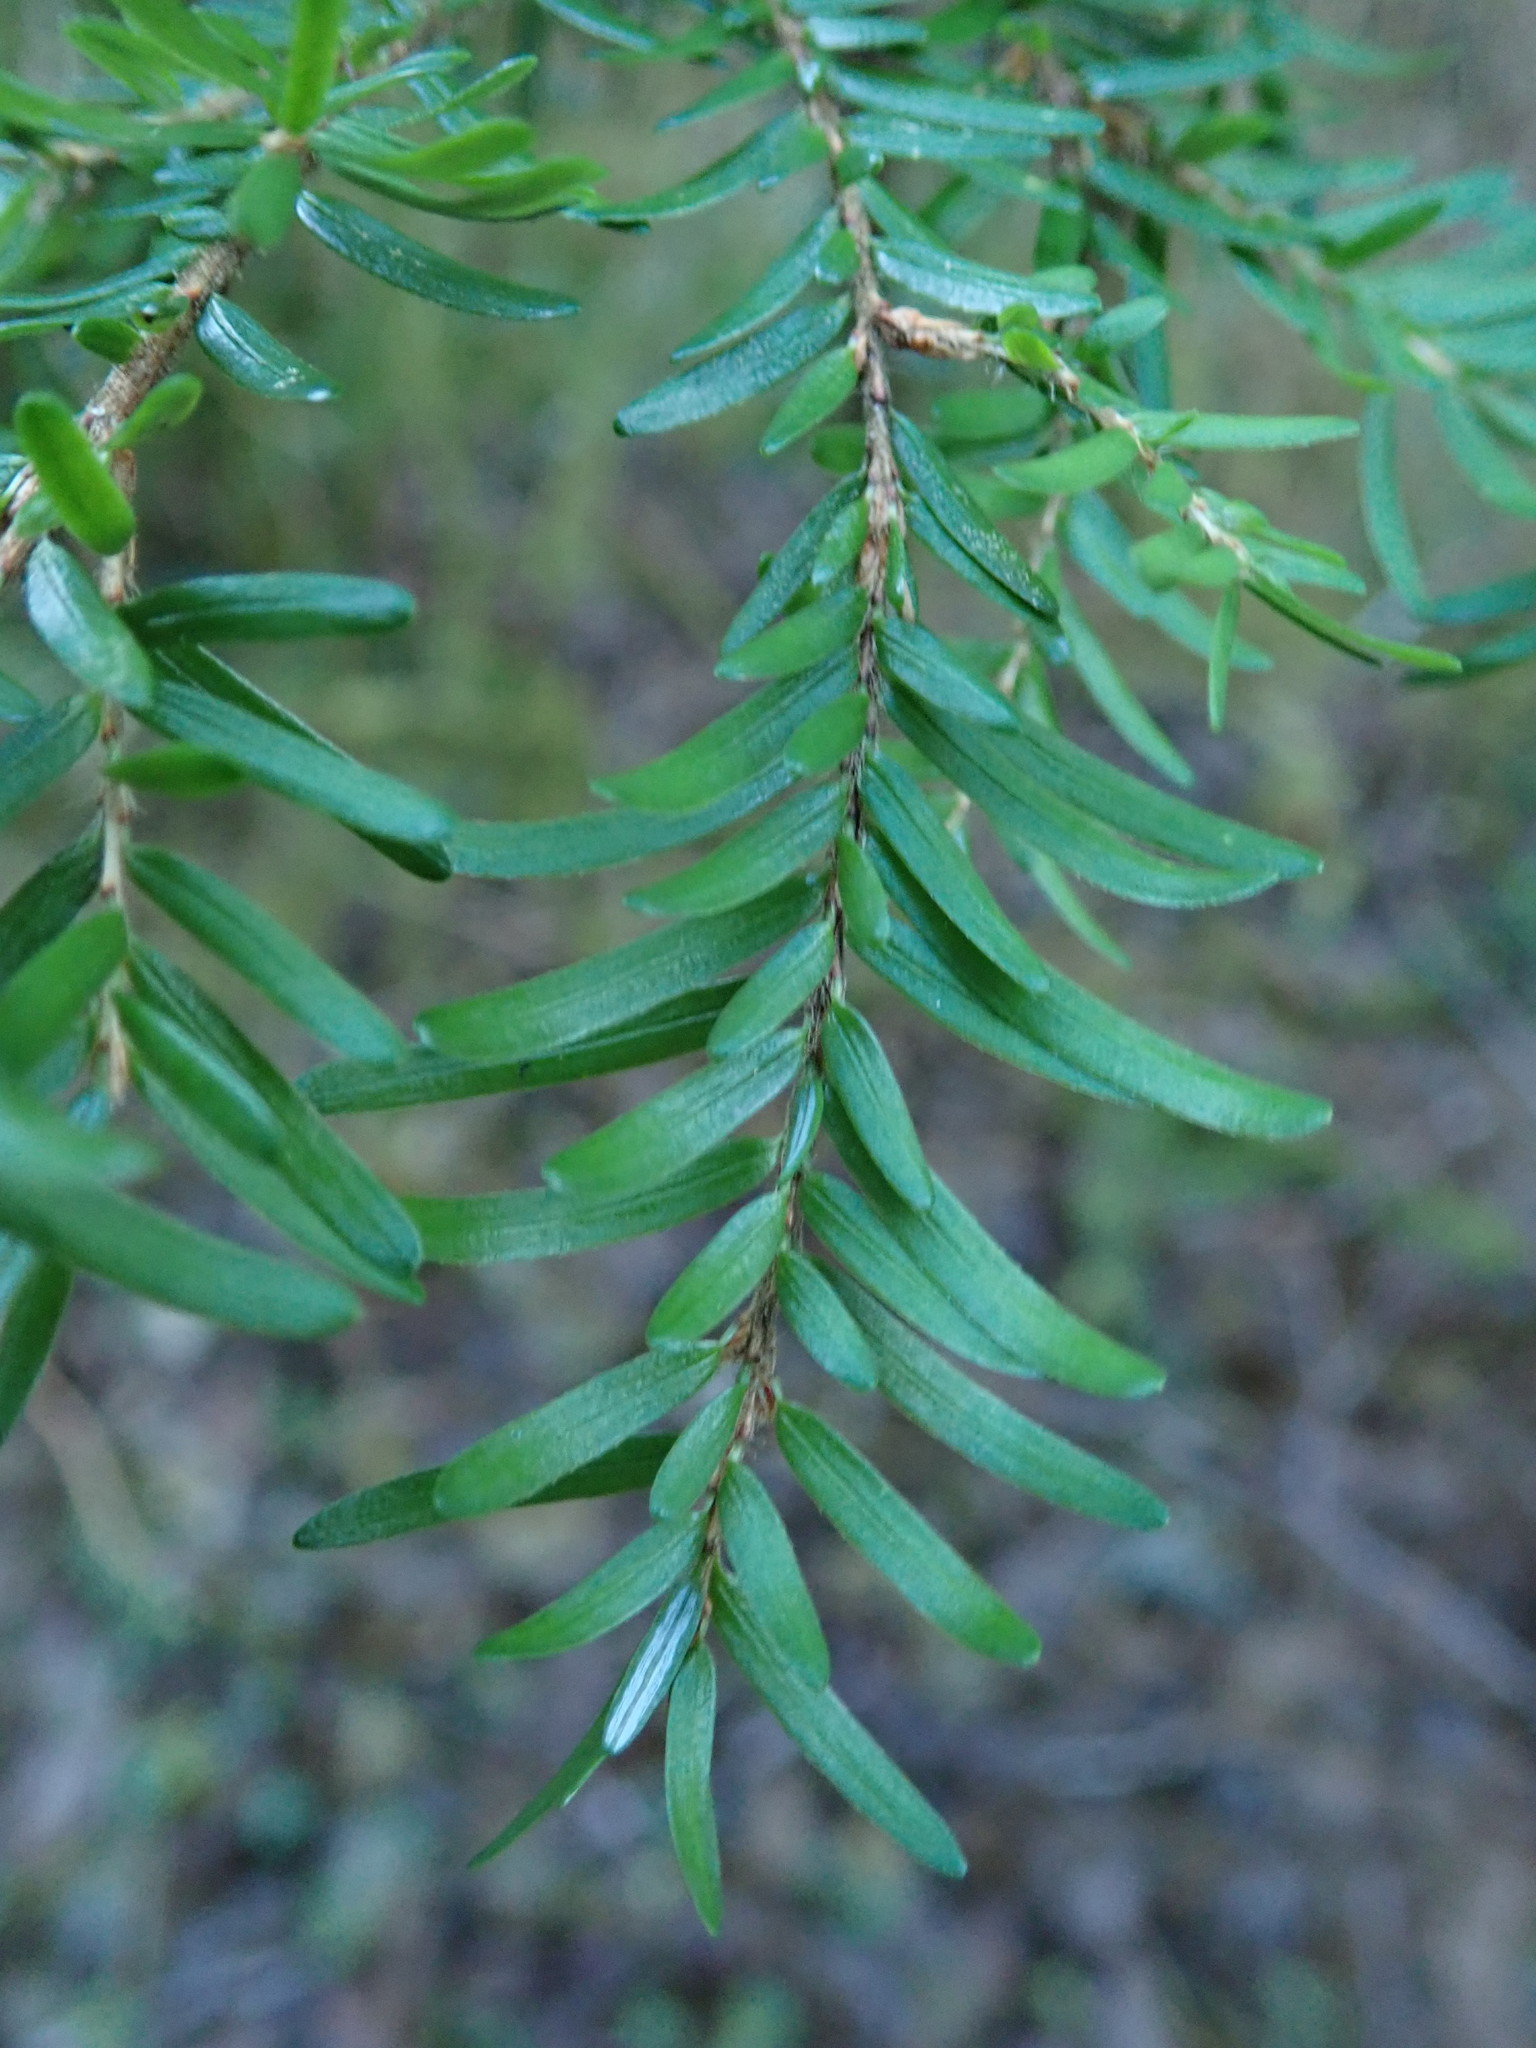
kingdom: Plantae
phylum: Tracheophyta
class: Pinopsida
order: Pinales
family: Pinaceae
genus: Tsuga
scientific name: Tsuga heterophylla
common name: Western hemlock
